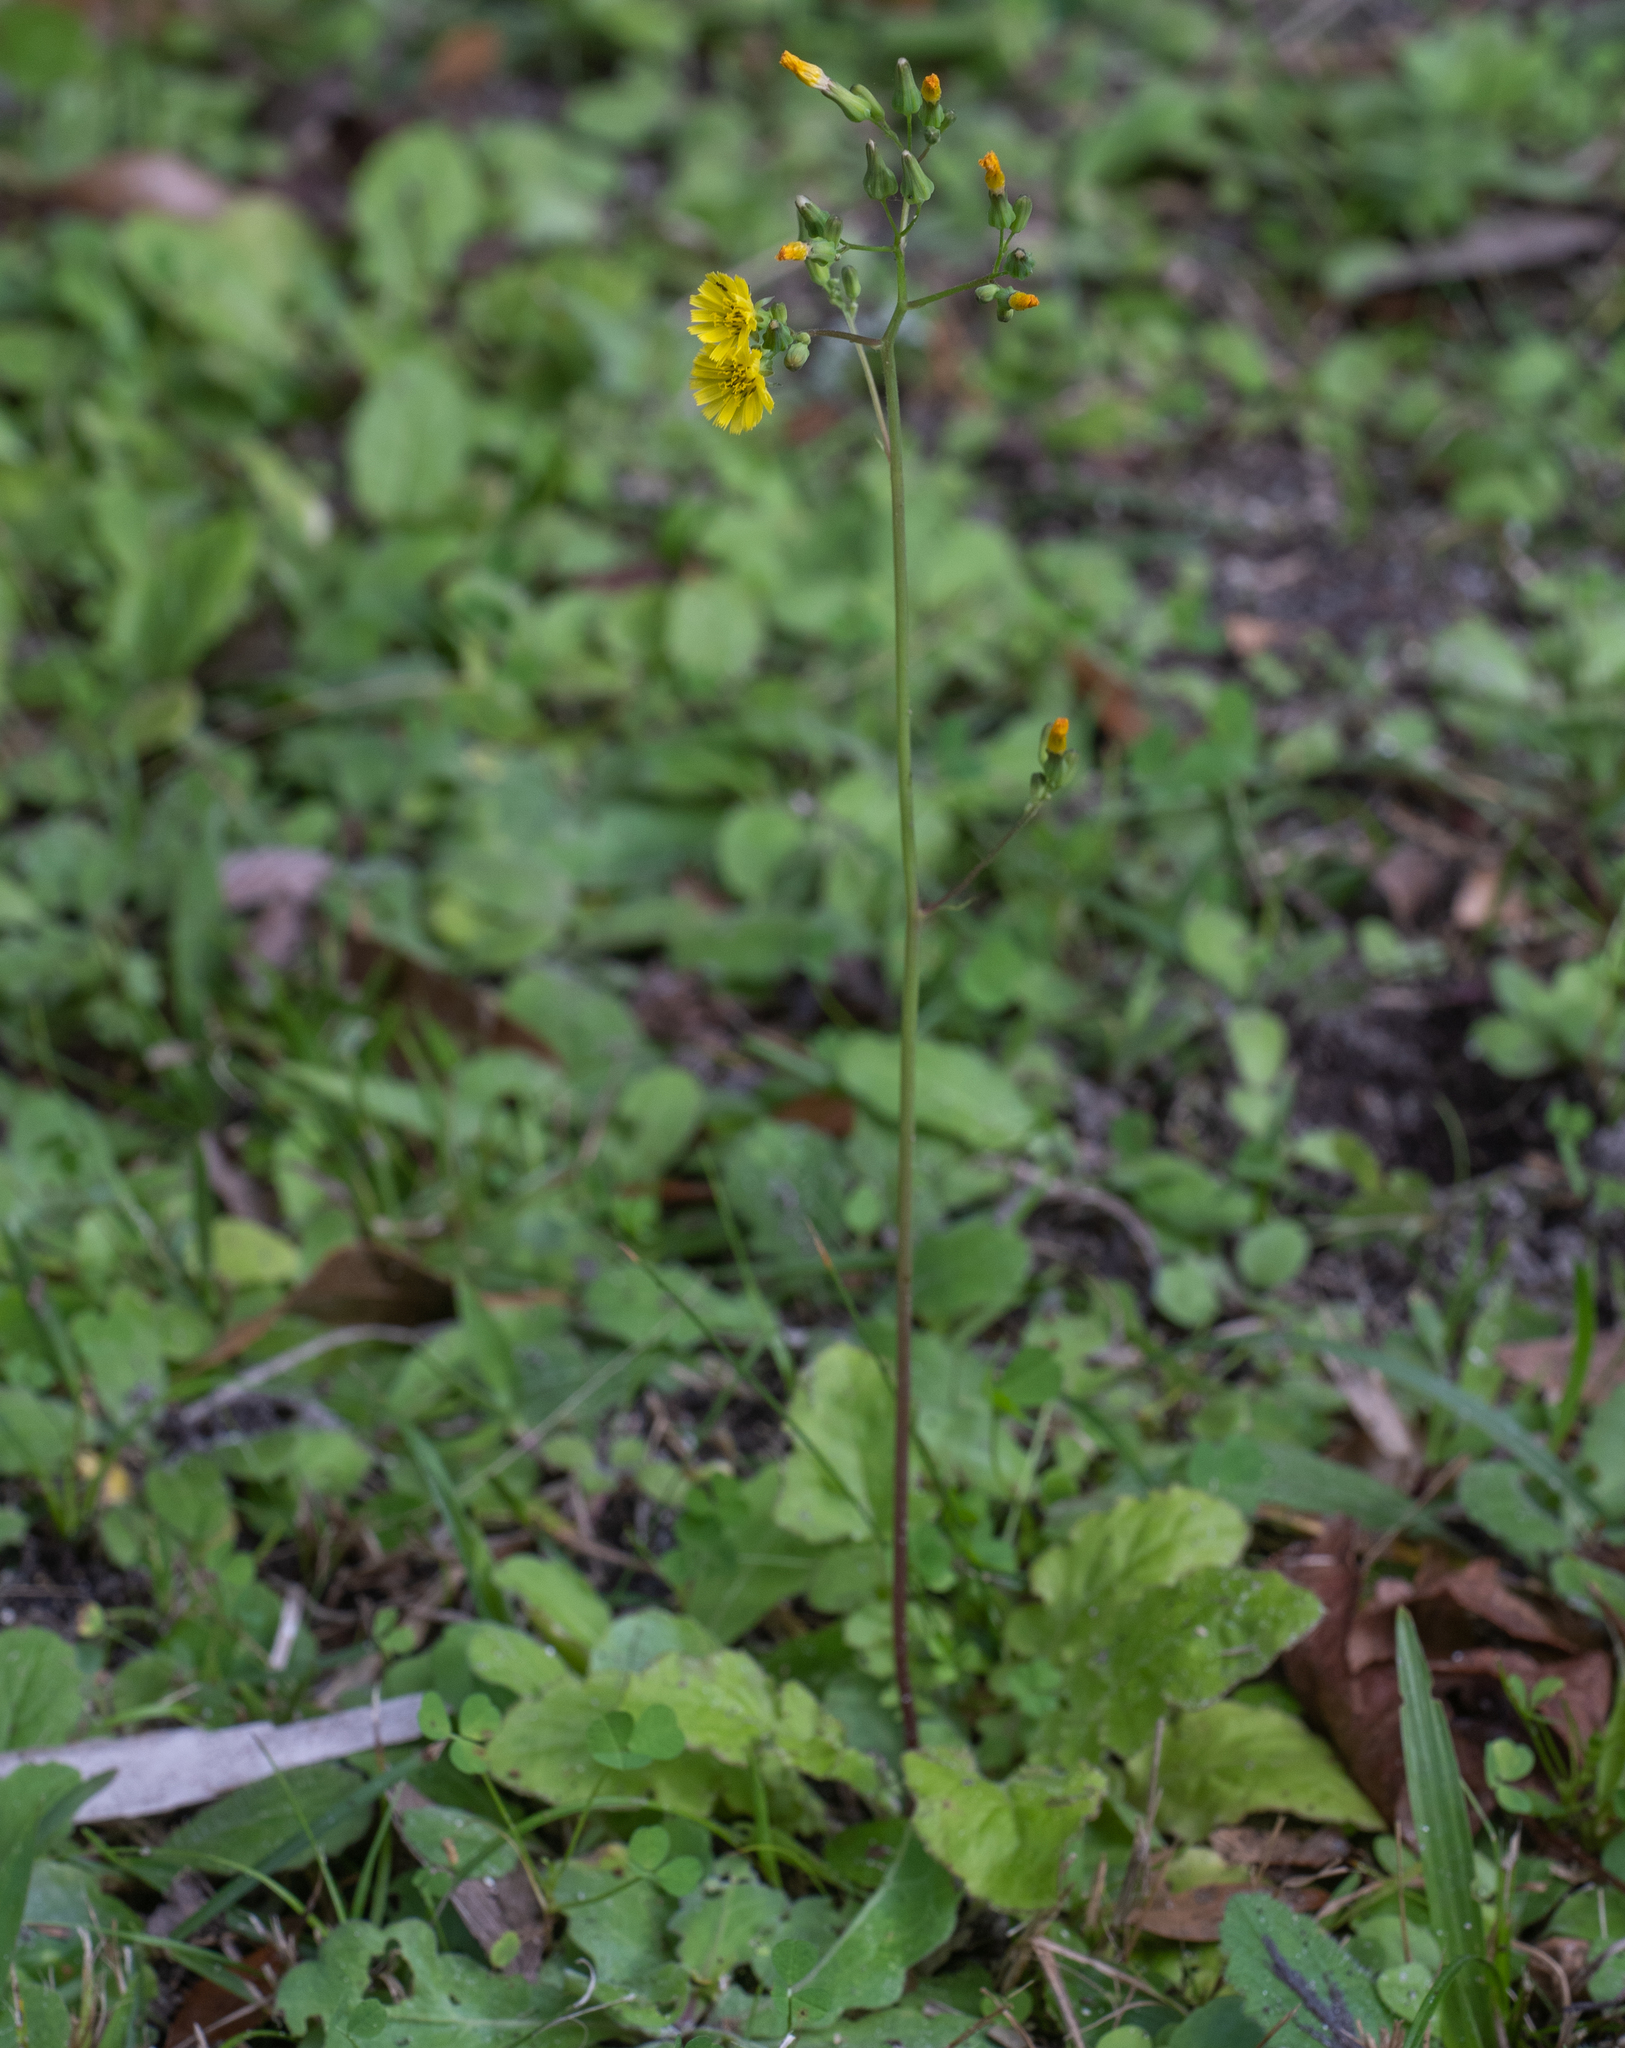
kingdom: Plantae
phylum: Tracheophyta
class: Magnoliopsida
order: Asterales
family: Asteraceae
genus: Youngia
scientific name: Youngia japonica
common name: Oriental false hawksbeard
